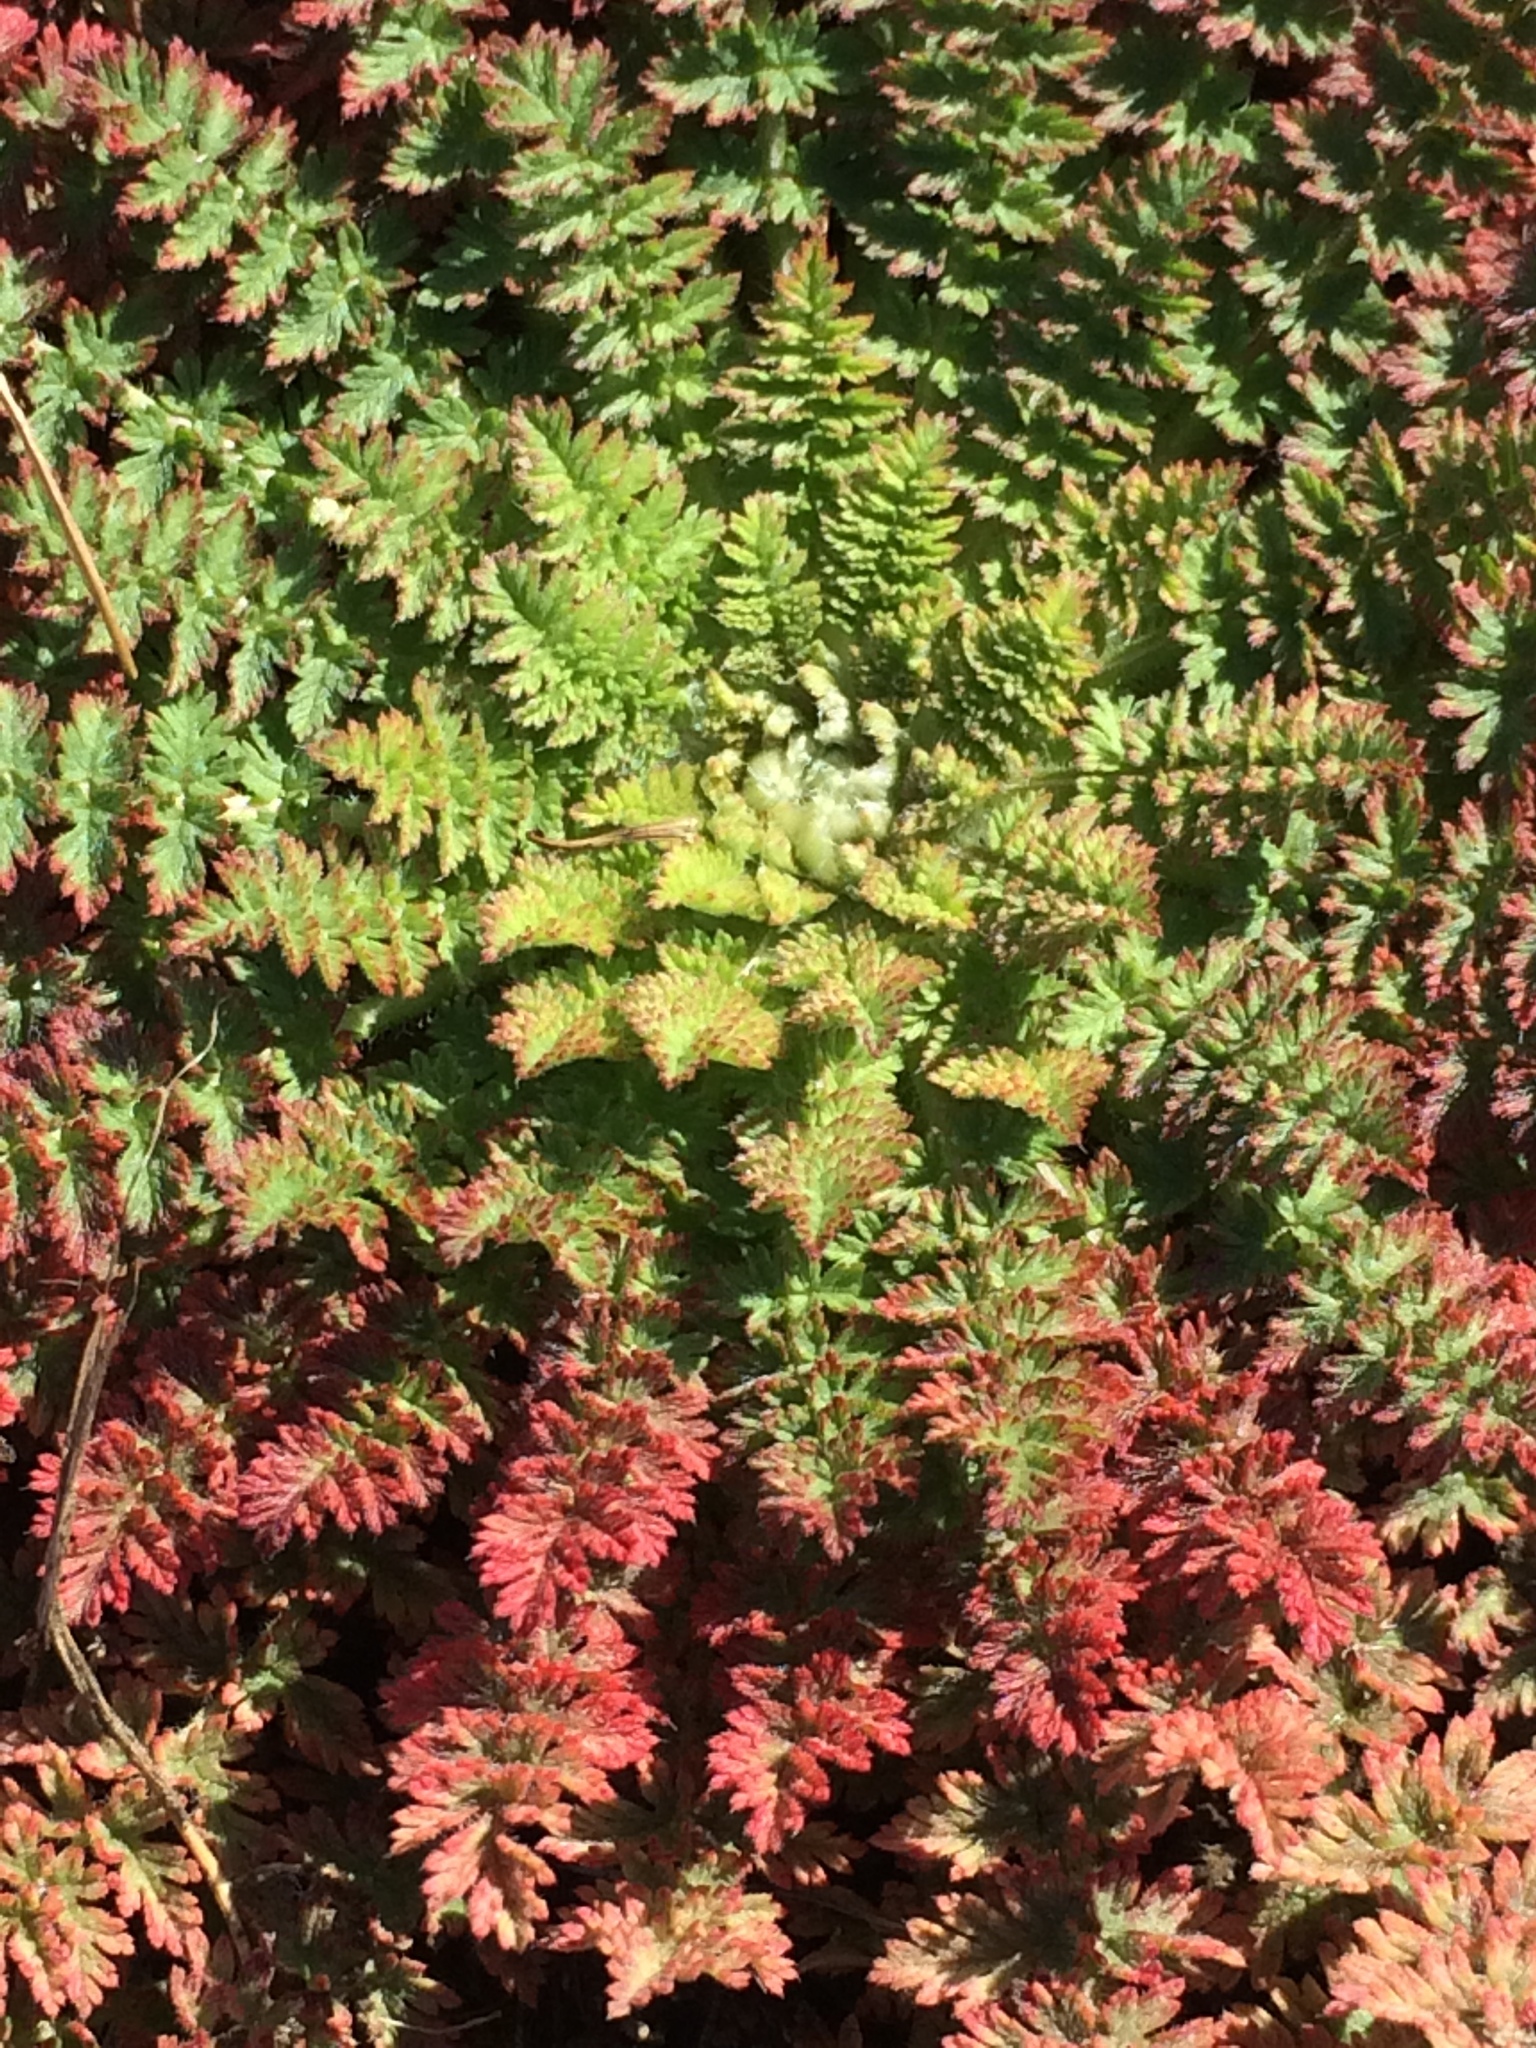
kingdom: Plantae
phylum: Tracheophyta
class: Magnoliopsida
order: Geraniales
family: Geraniaceae
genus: Erodium
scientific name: Erodium cicutarium
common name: Common stork's-bill
